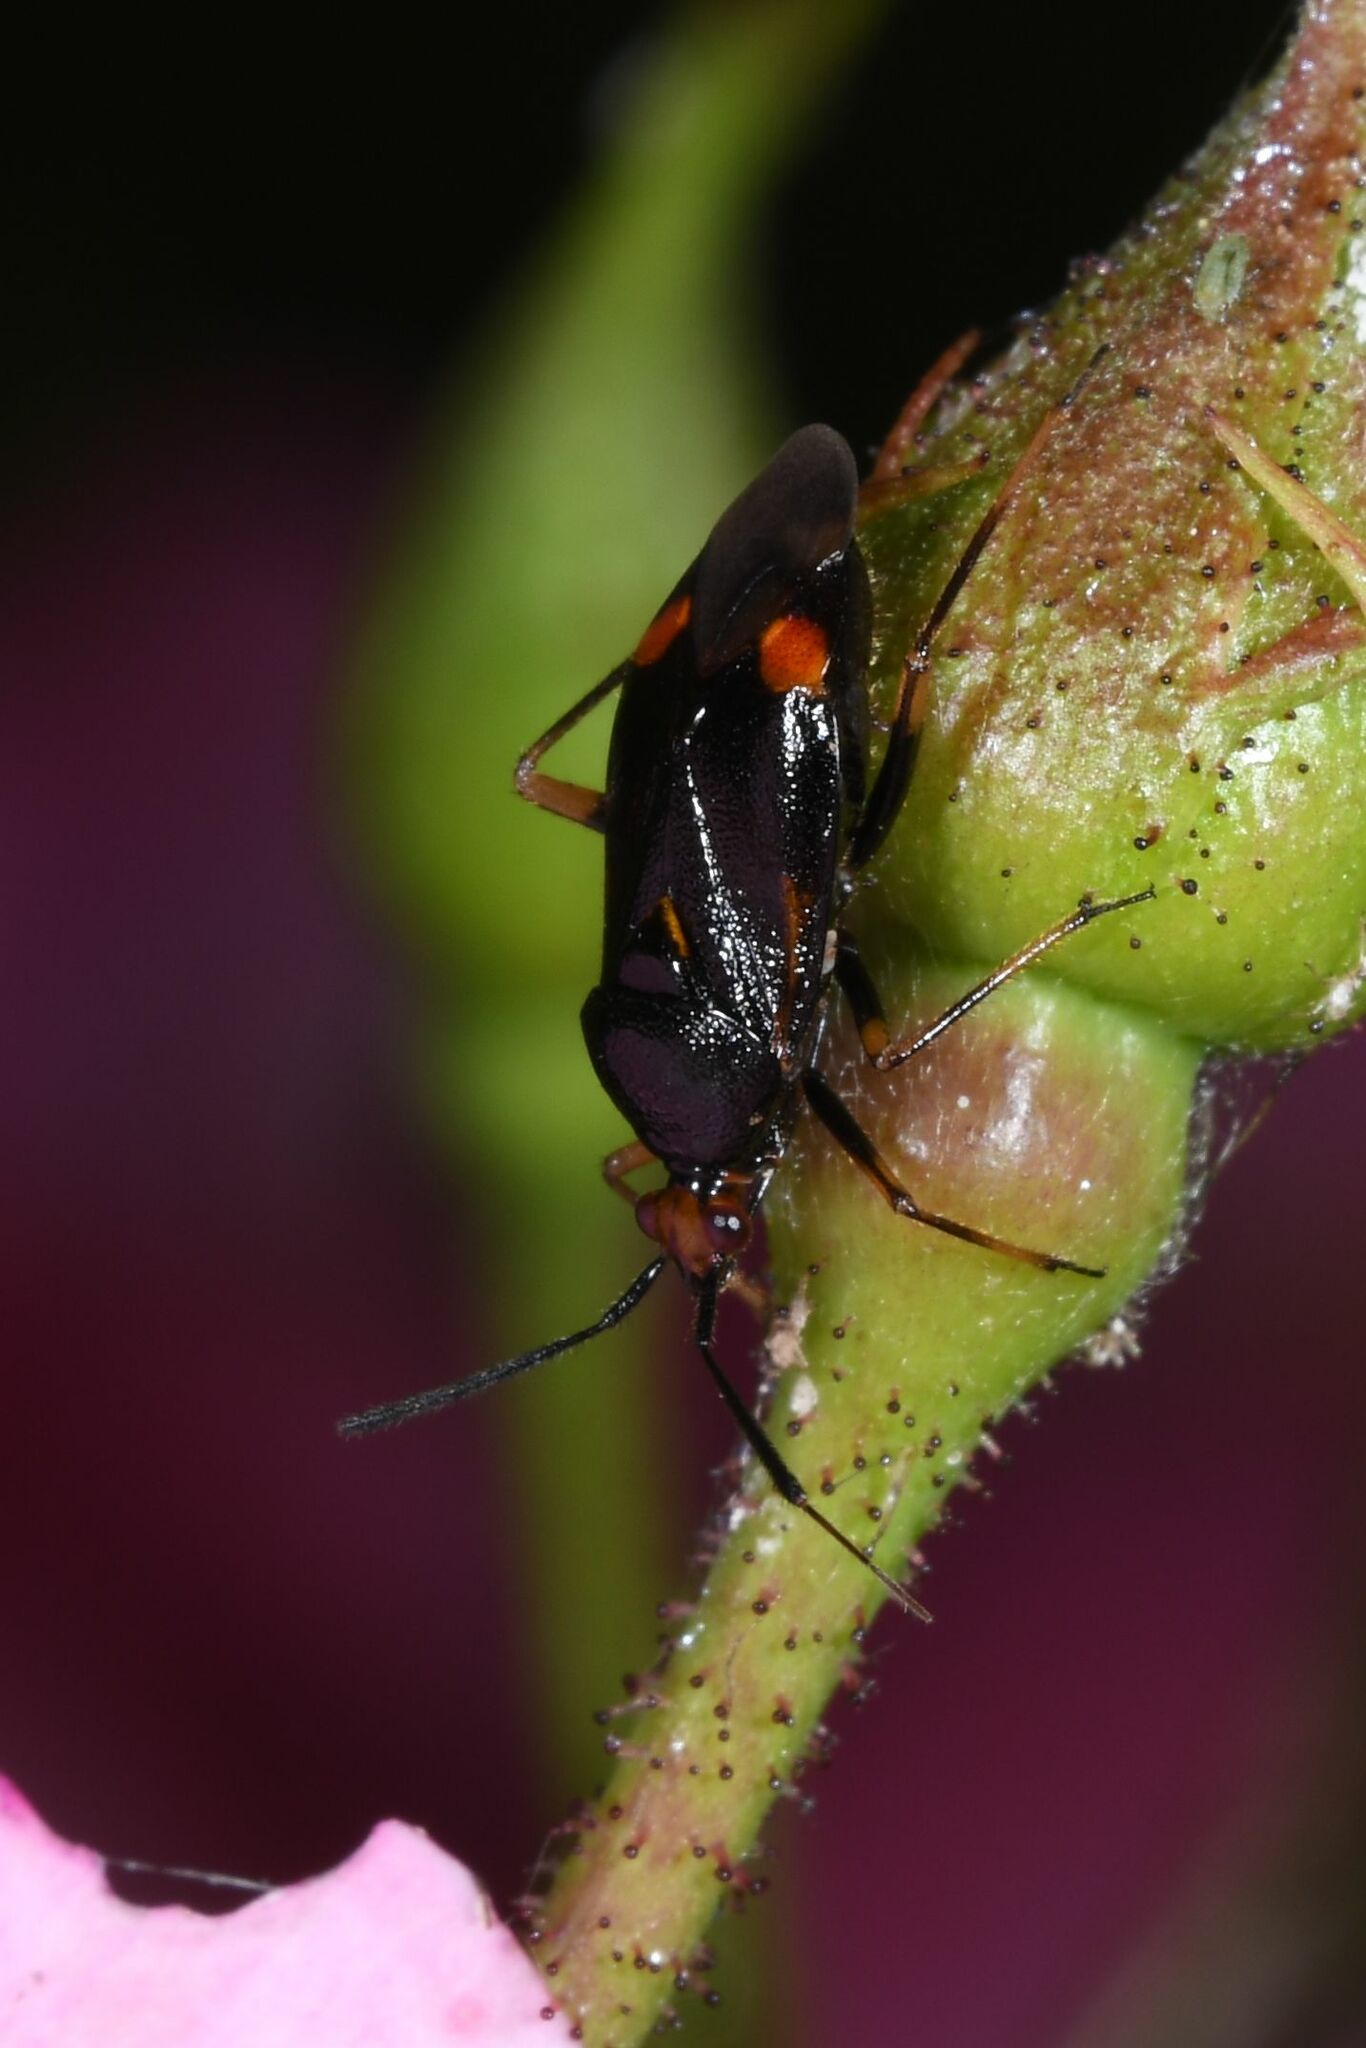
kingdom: Animalia
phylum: Arthropoda
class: Insecta
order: Hemiptera
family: Miridae
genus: Deraeocoris
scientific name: Deraeocoris ruber
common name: Plant bug
